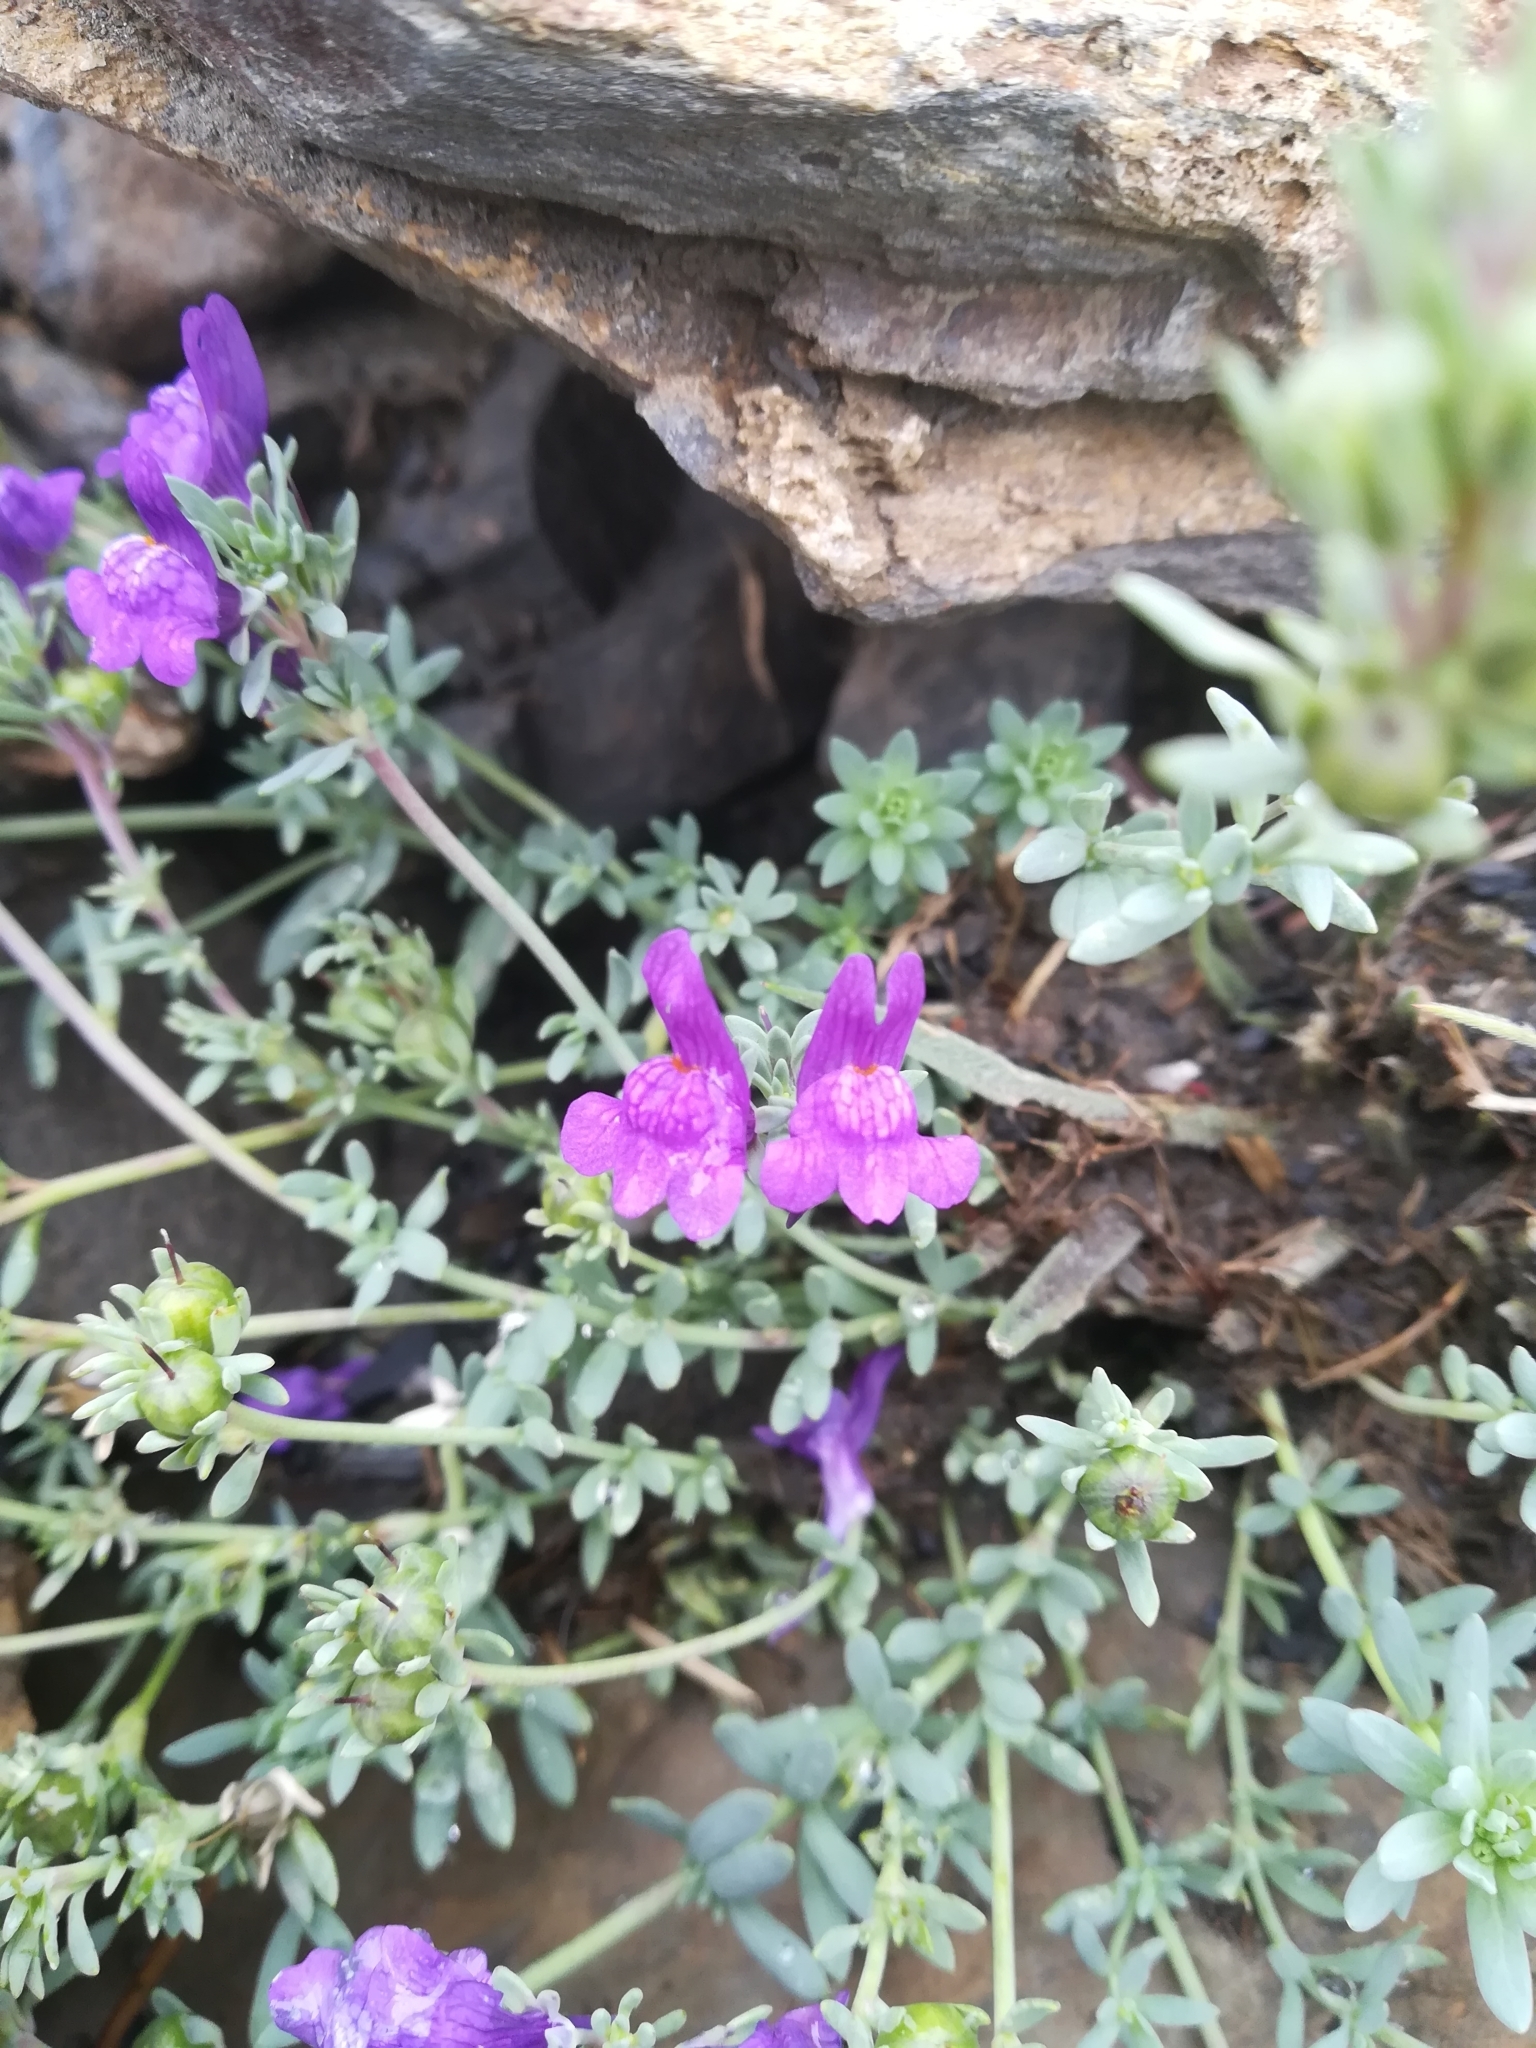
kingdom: Plantae
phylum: Tracheophyta
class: Magnoliopsida
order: Lamiales
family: Plantaginaceae
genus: Linaria
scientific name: Linaria alpina
